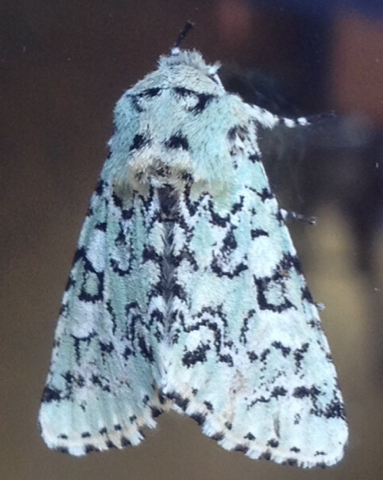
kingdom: Animalia
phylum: Arthropoda
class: Insecta
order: Lepidoptera
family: Noctuidae
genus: Feralia
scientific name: Feralia major
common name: Major sallow
